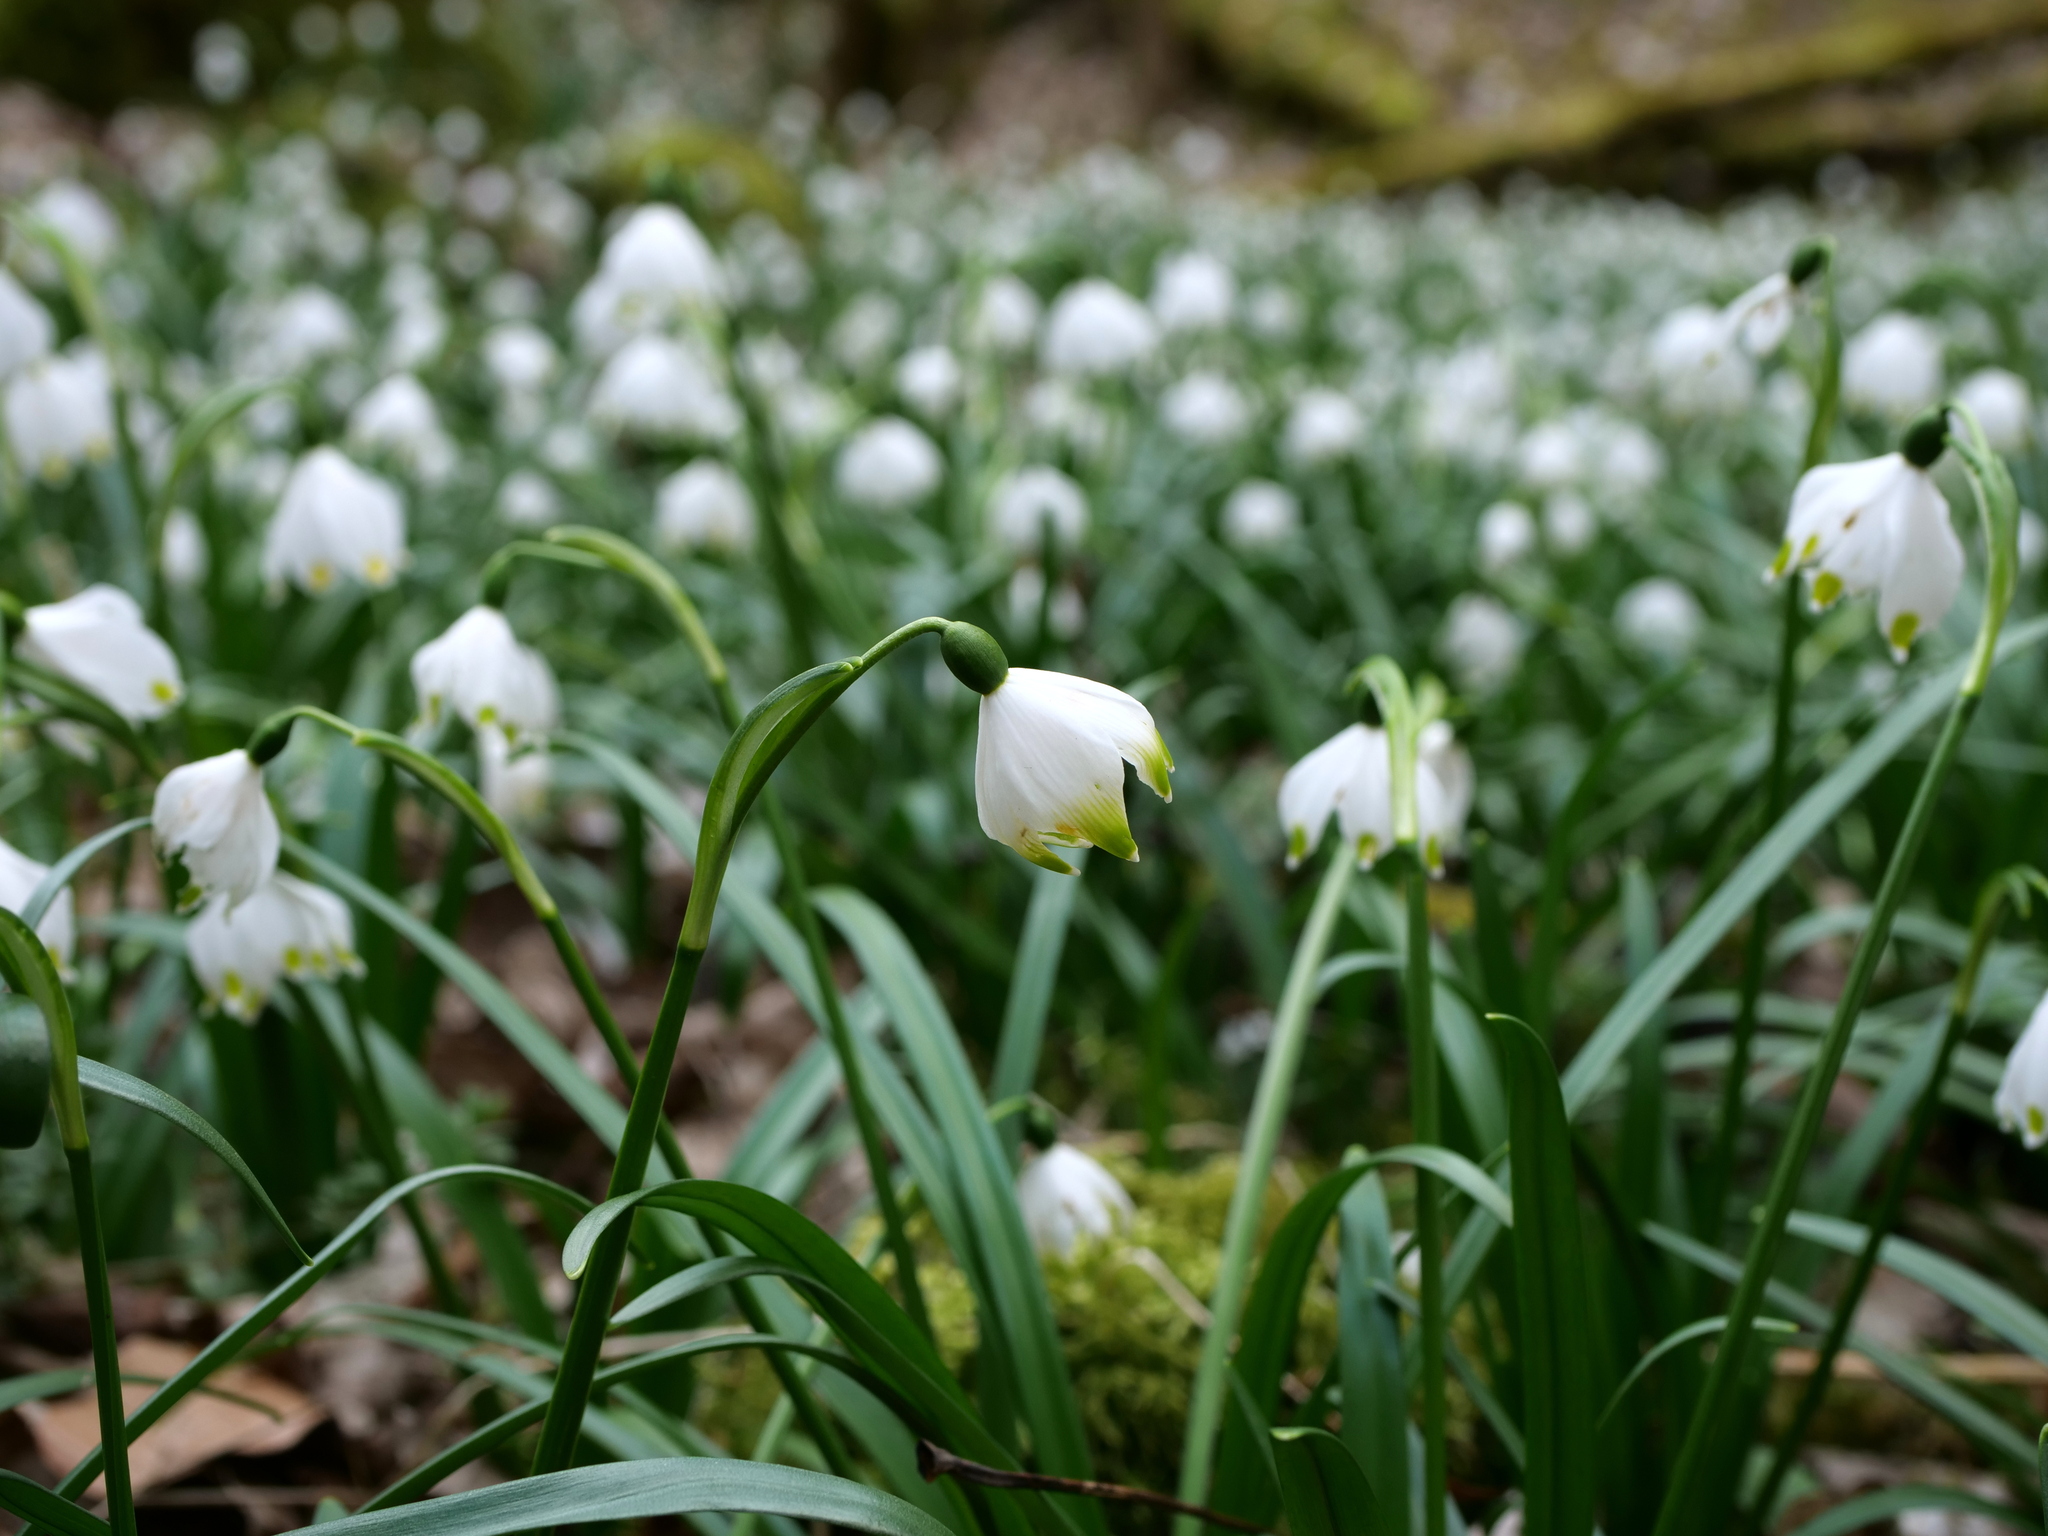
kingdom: Plantae
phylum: Tracheophyta
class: Liliopsida
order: Asparagales
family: Amaryllidaceae
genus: Leucojum
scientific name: Leucojum vernum
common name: Spring snowflake
